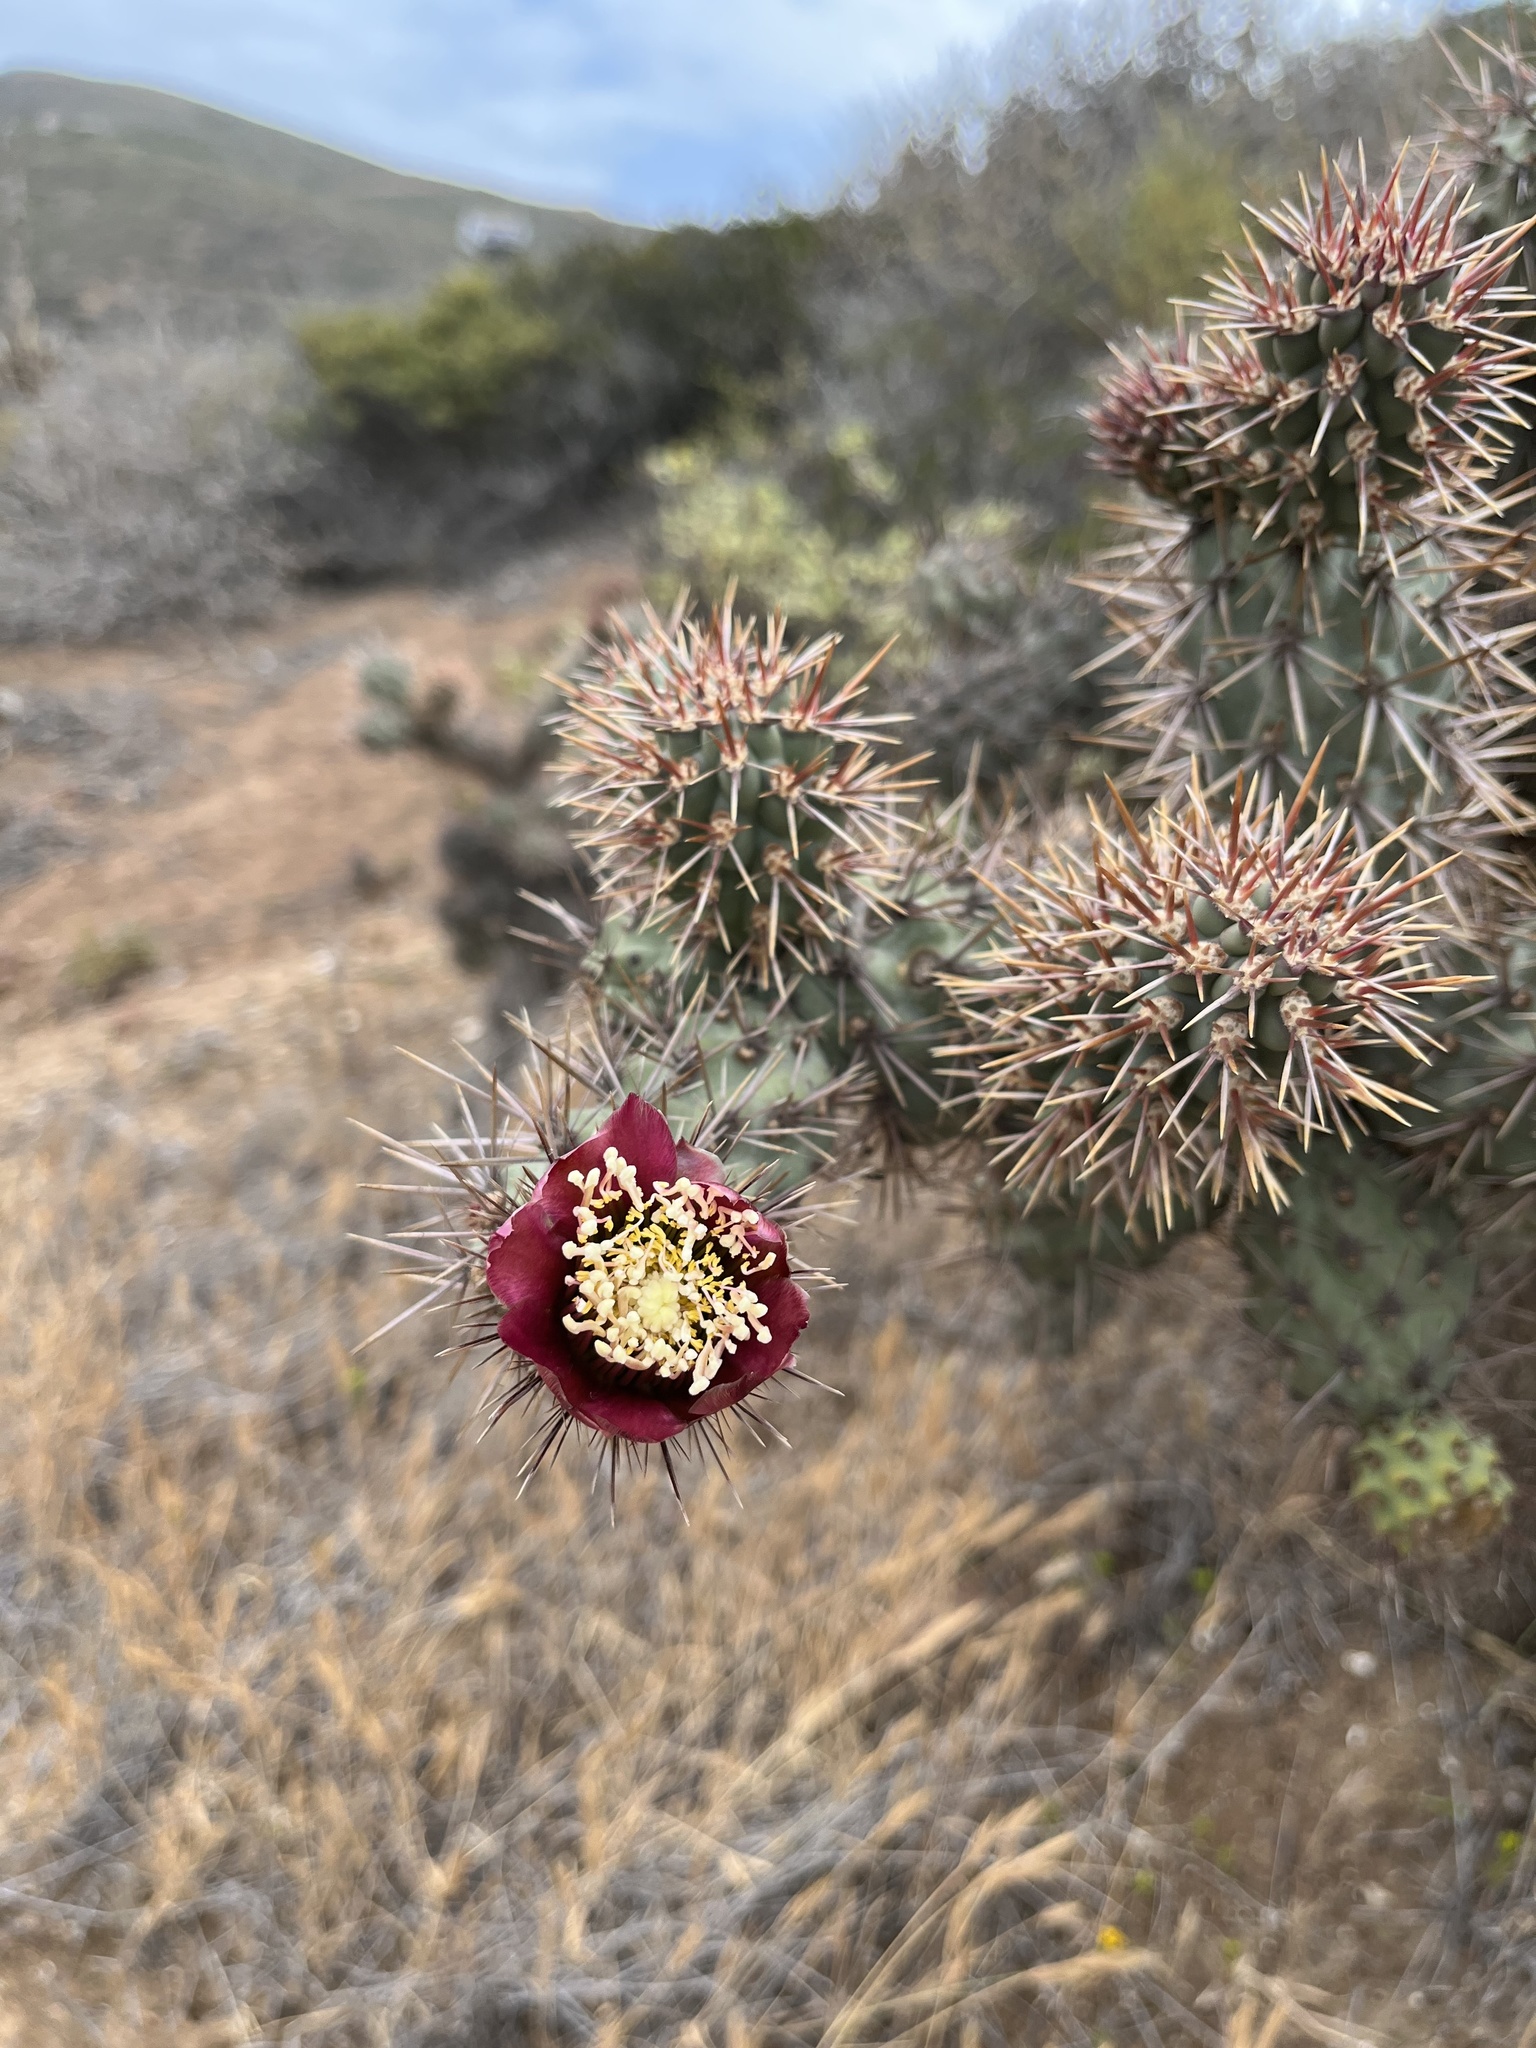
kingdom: Plantae
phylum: Tracheophyta
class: Magnoliopsida
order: Caryophyllales
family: Cactaceae
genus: Cylindropuntia
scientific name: Cylindropuntia prolifera
